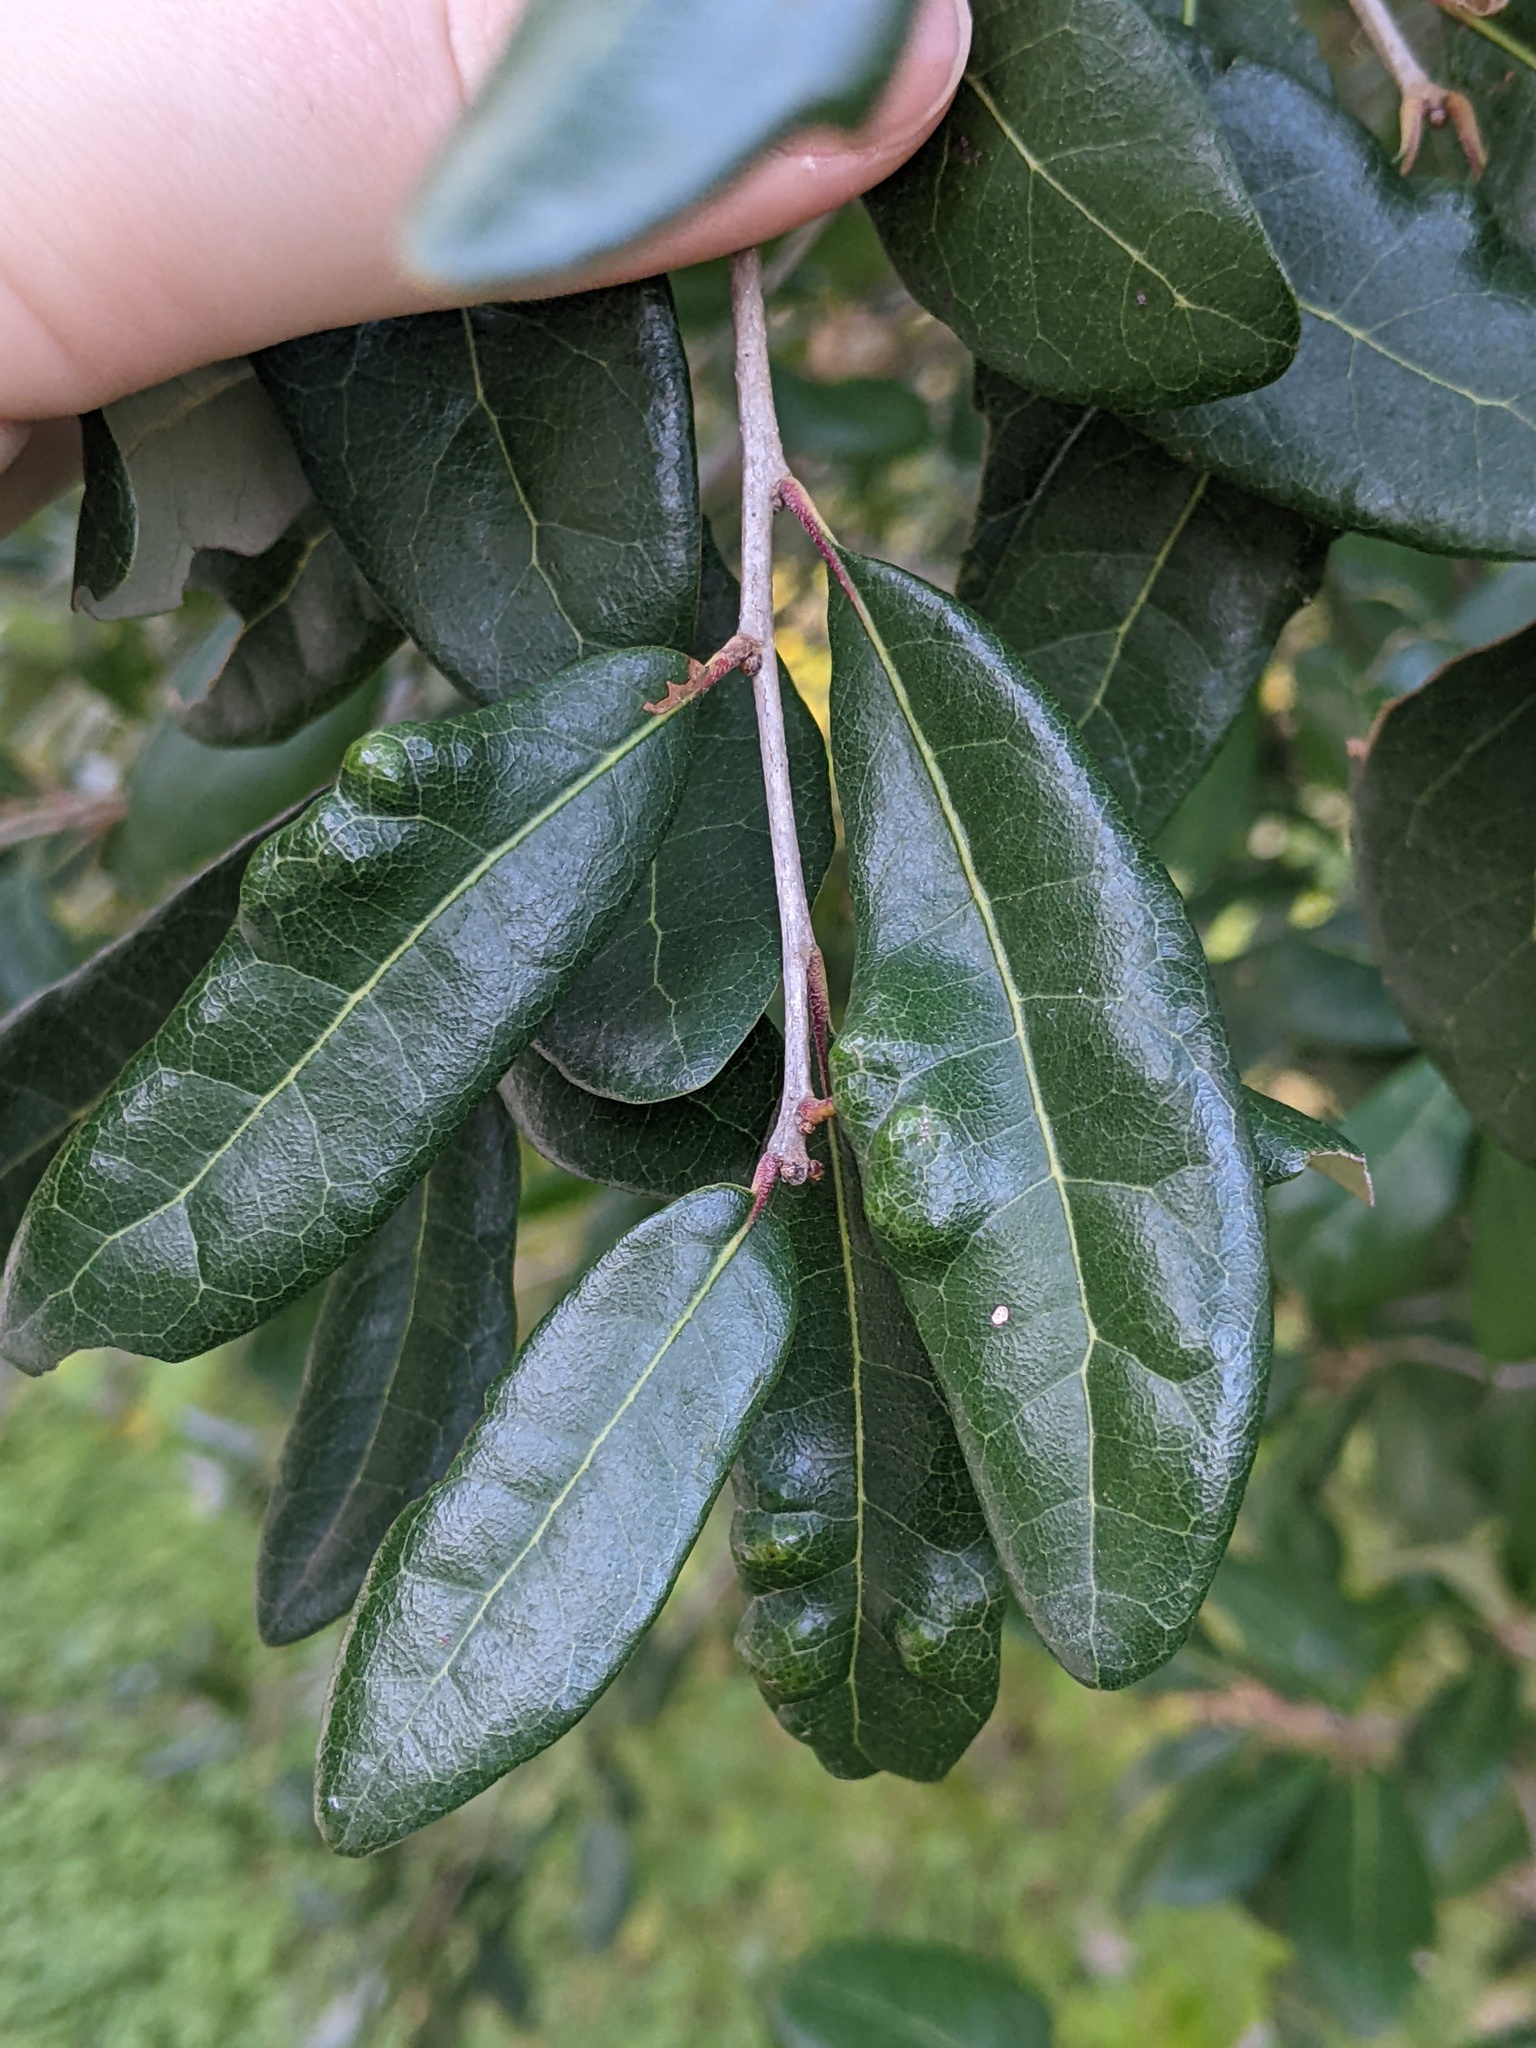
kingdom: Animalia
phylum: Arthropoda
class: Arachnida
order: Trombidiformes
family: Eriophyidae
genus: Aceria
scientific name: Aceria quercina
